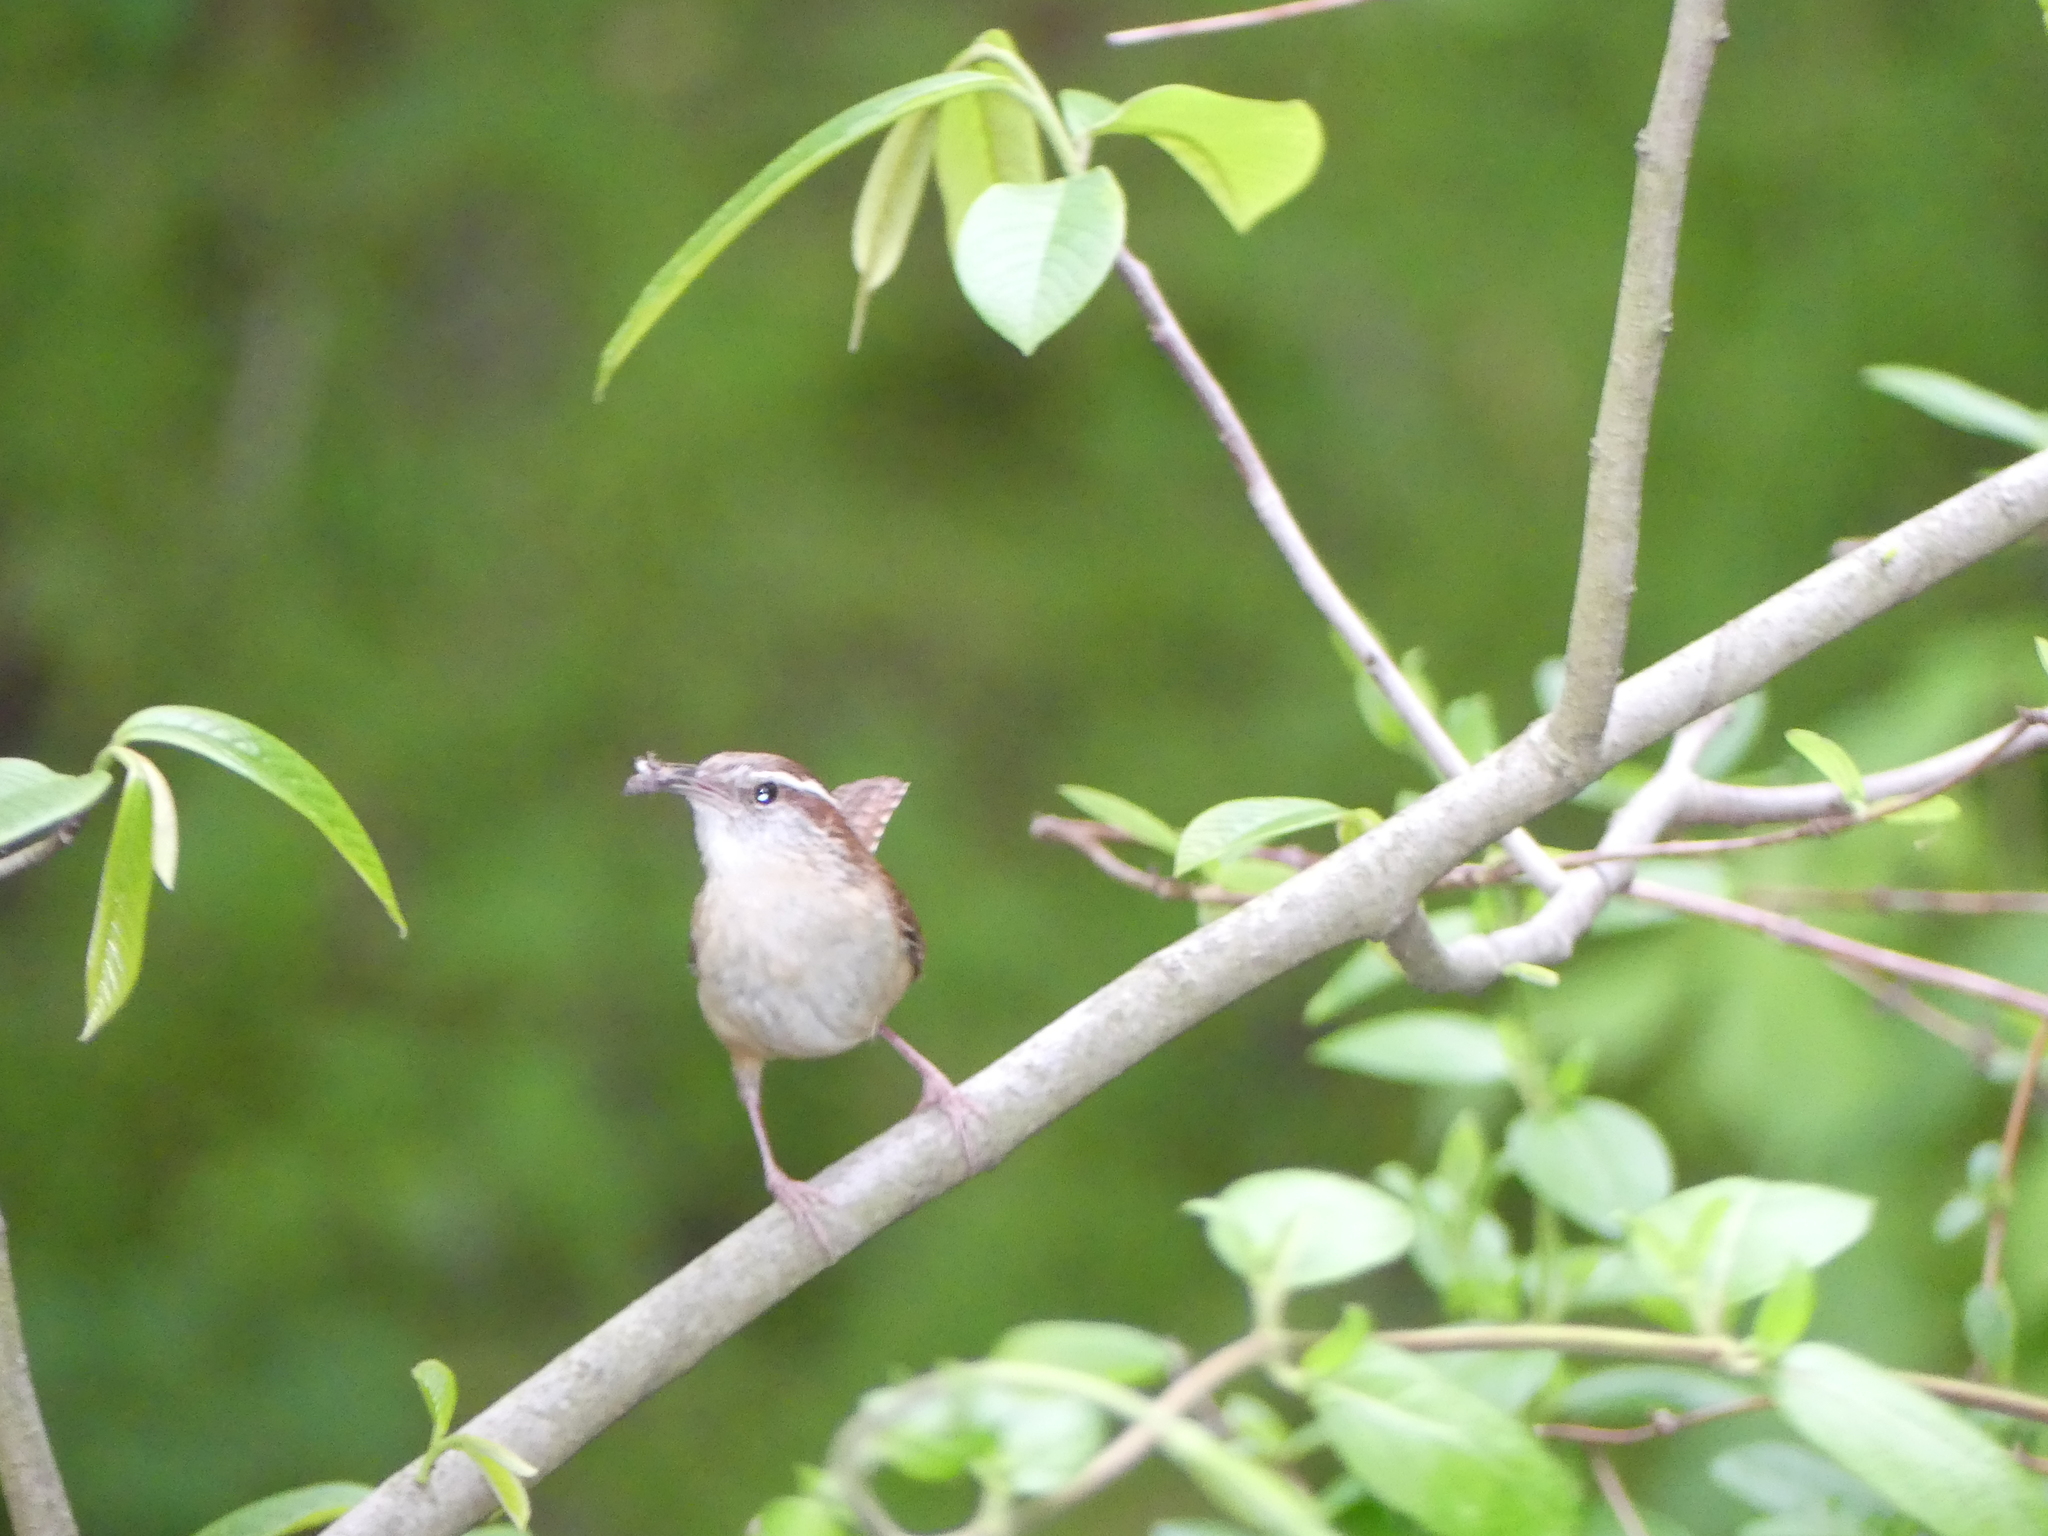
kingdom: Animalia
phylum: Chordata
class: Aves
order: Passeriformes
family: Troglodytidae
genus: Thryothorus
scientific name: Thryothorus ludovicianus
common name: Carolina wren
